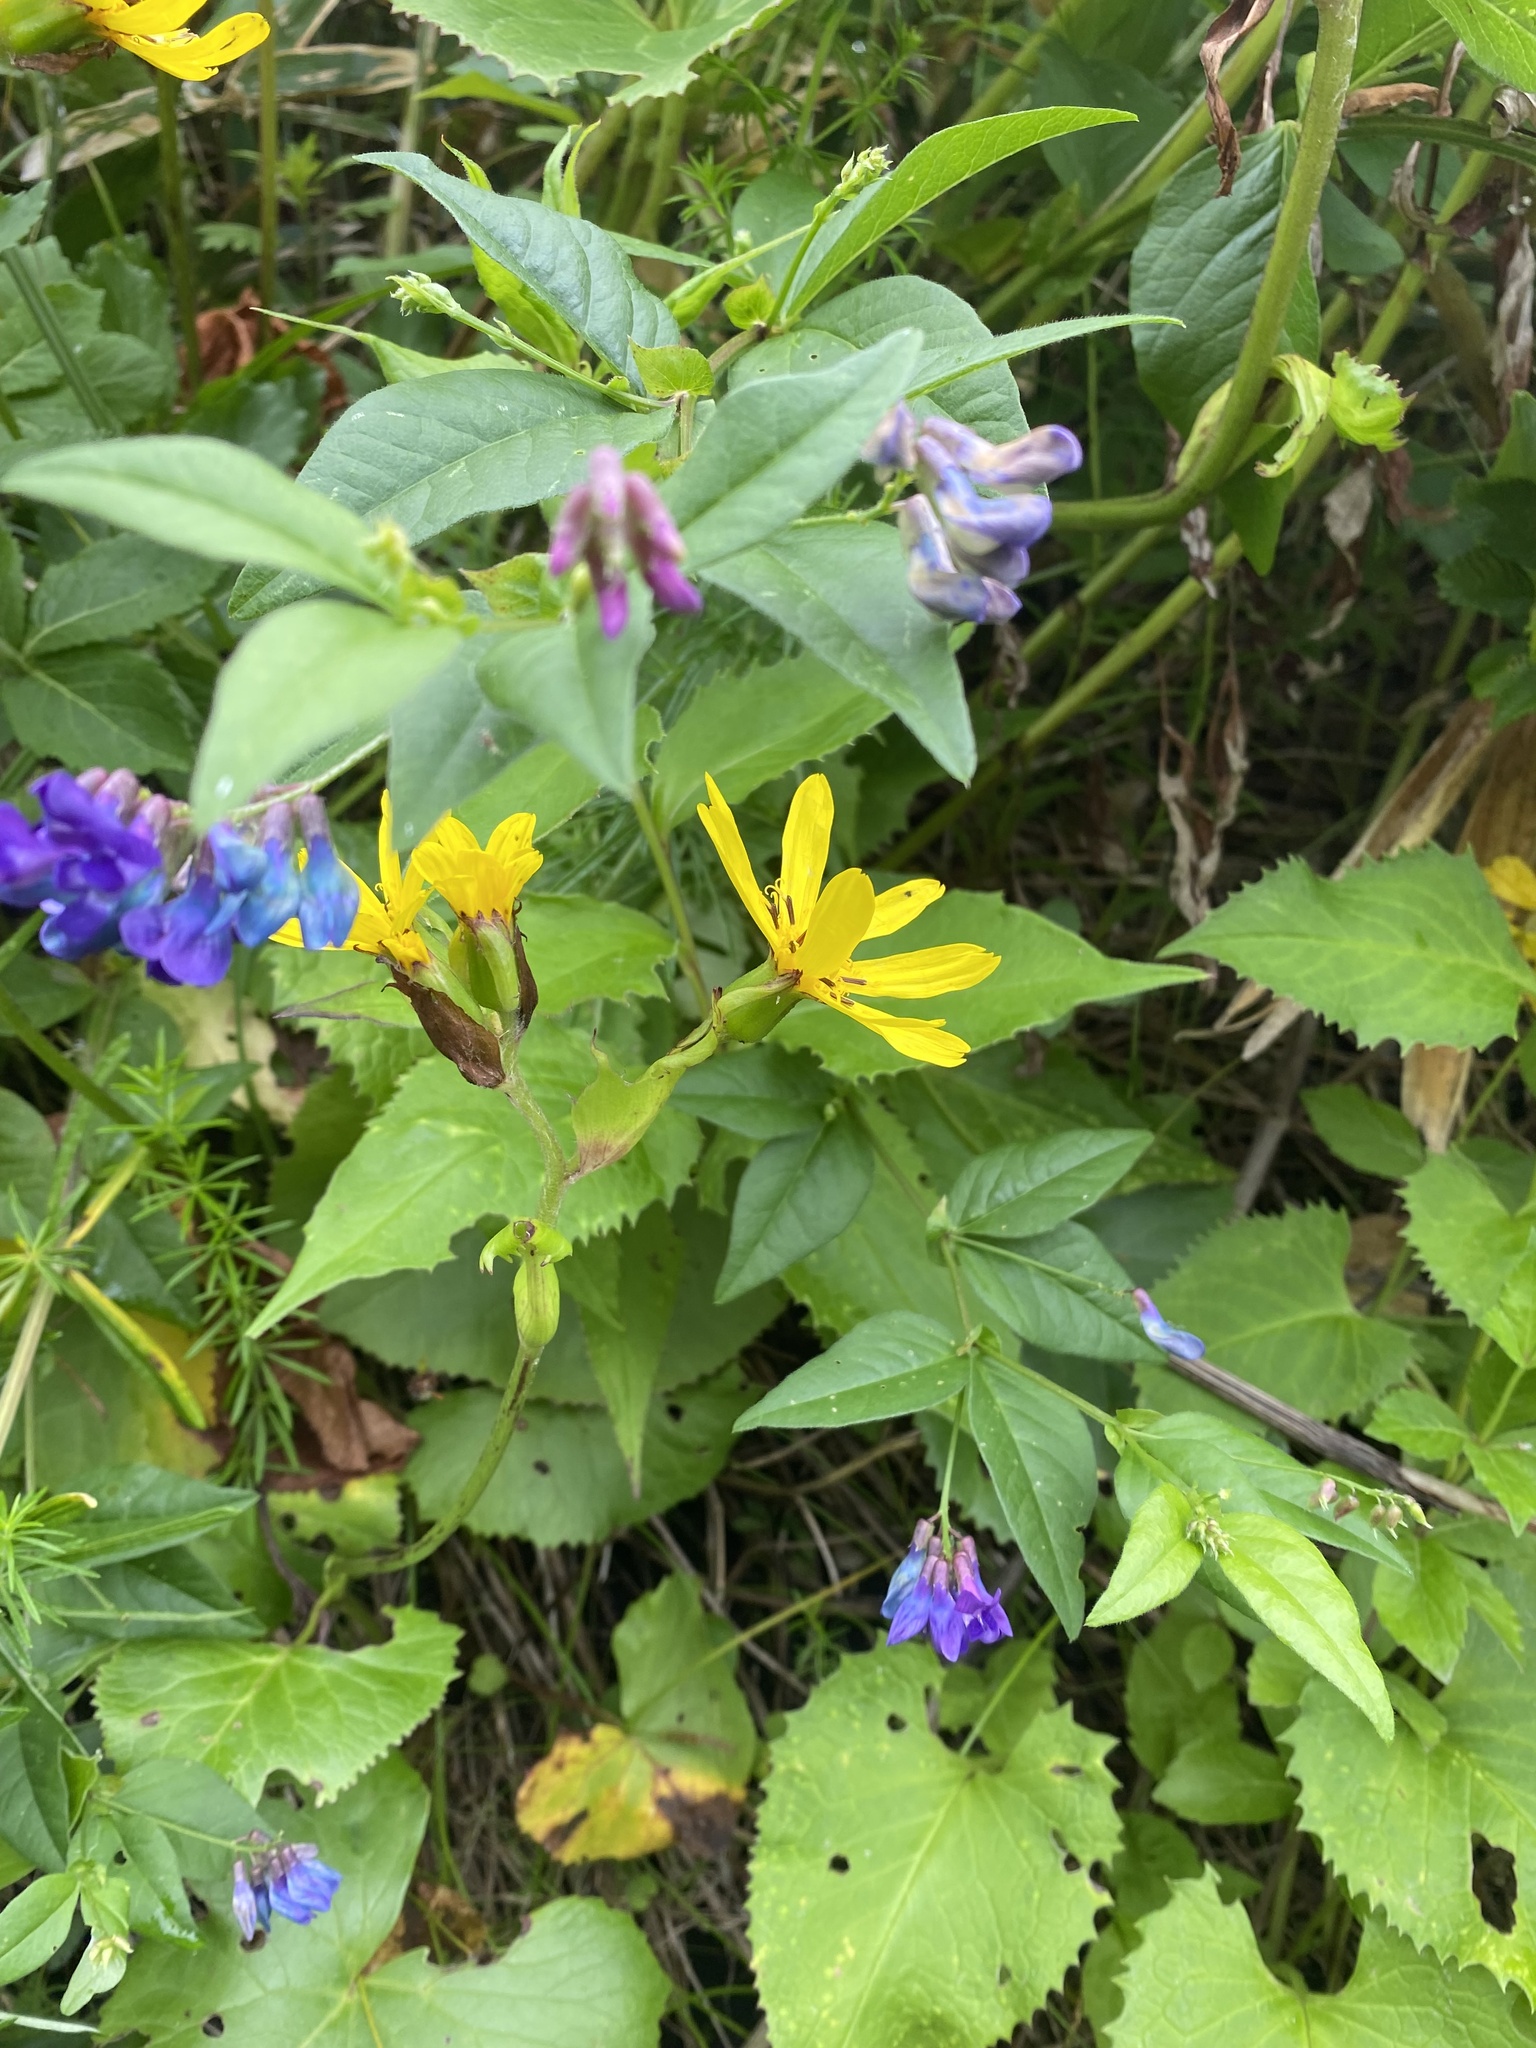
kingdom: Plantae
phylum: Tracheophyta
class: Magnoliopsida
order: Asterales
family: Asteraceae
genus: Ligularia
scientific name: Ligularia hodgsonii
